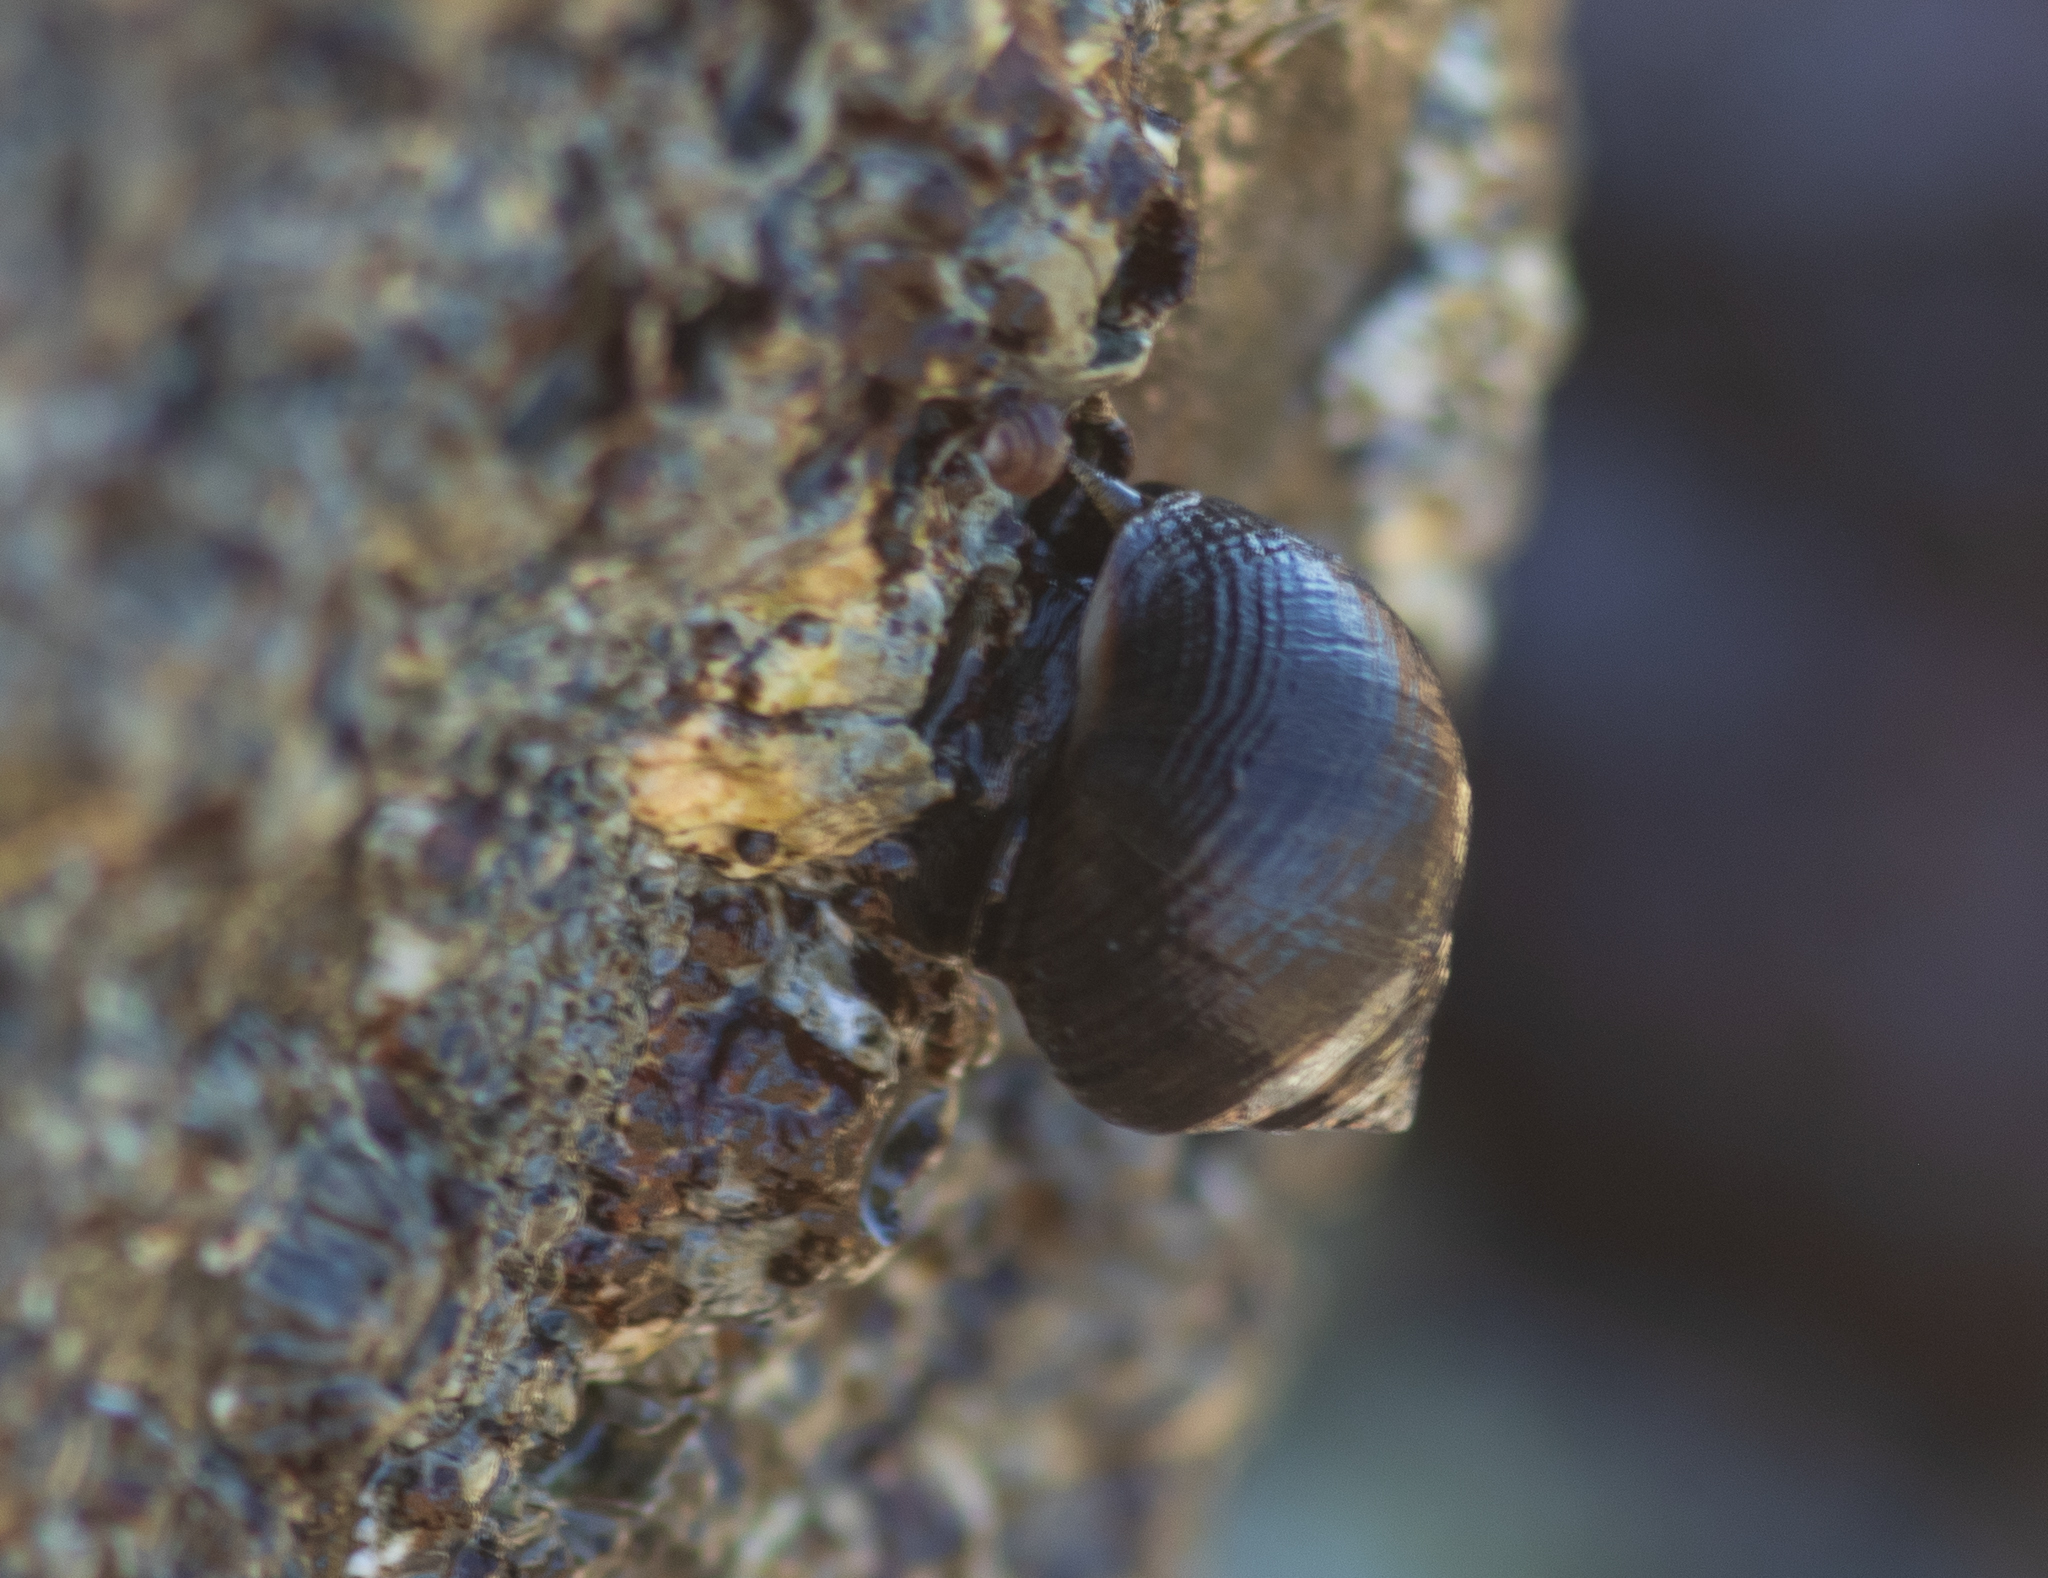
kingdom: Animalia
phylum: Mollusca
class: Gastropoda
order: Littorinimorpha
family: Littorinidae
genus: Littorina
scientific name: Littorina littorea
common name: Common periwinkle
